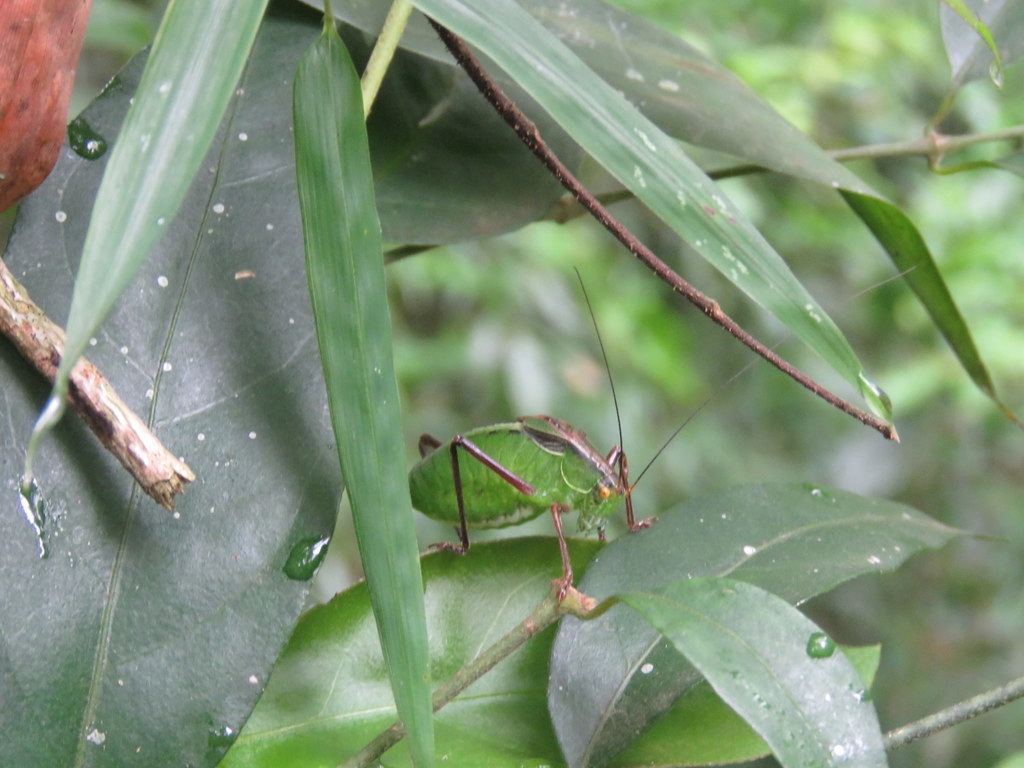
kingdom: Animalia
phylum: Arthropoda
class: Insecta
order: Orthoptera
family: Tettigoniidae
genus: Anisophya
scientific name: Anisophya melanochloris
